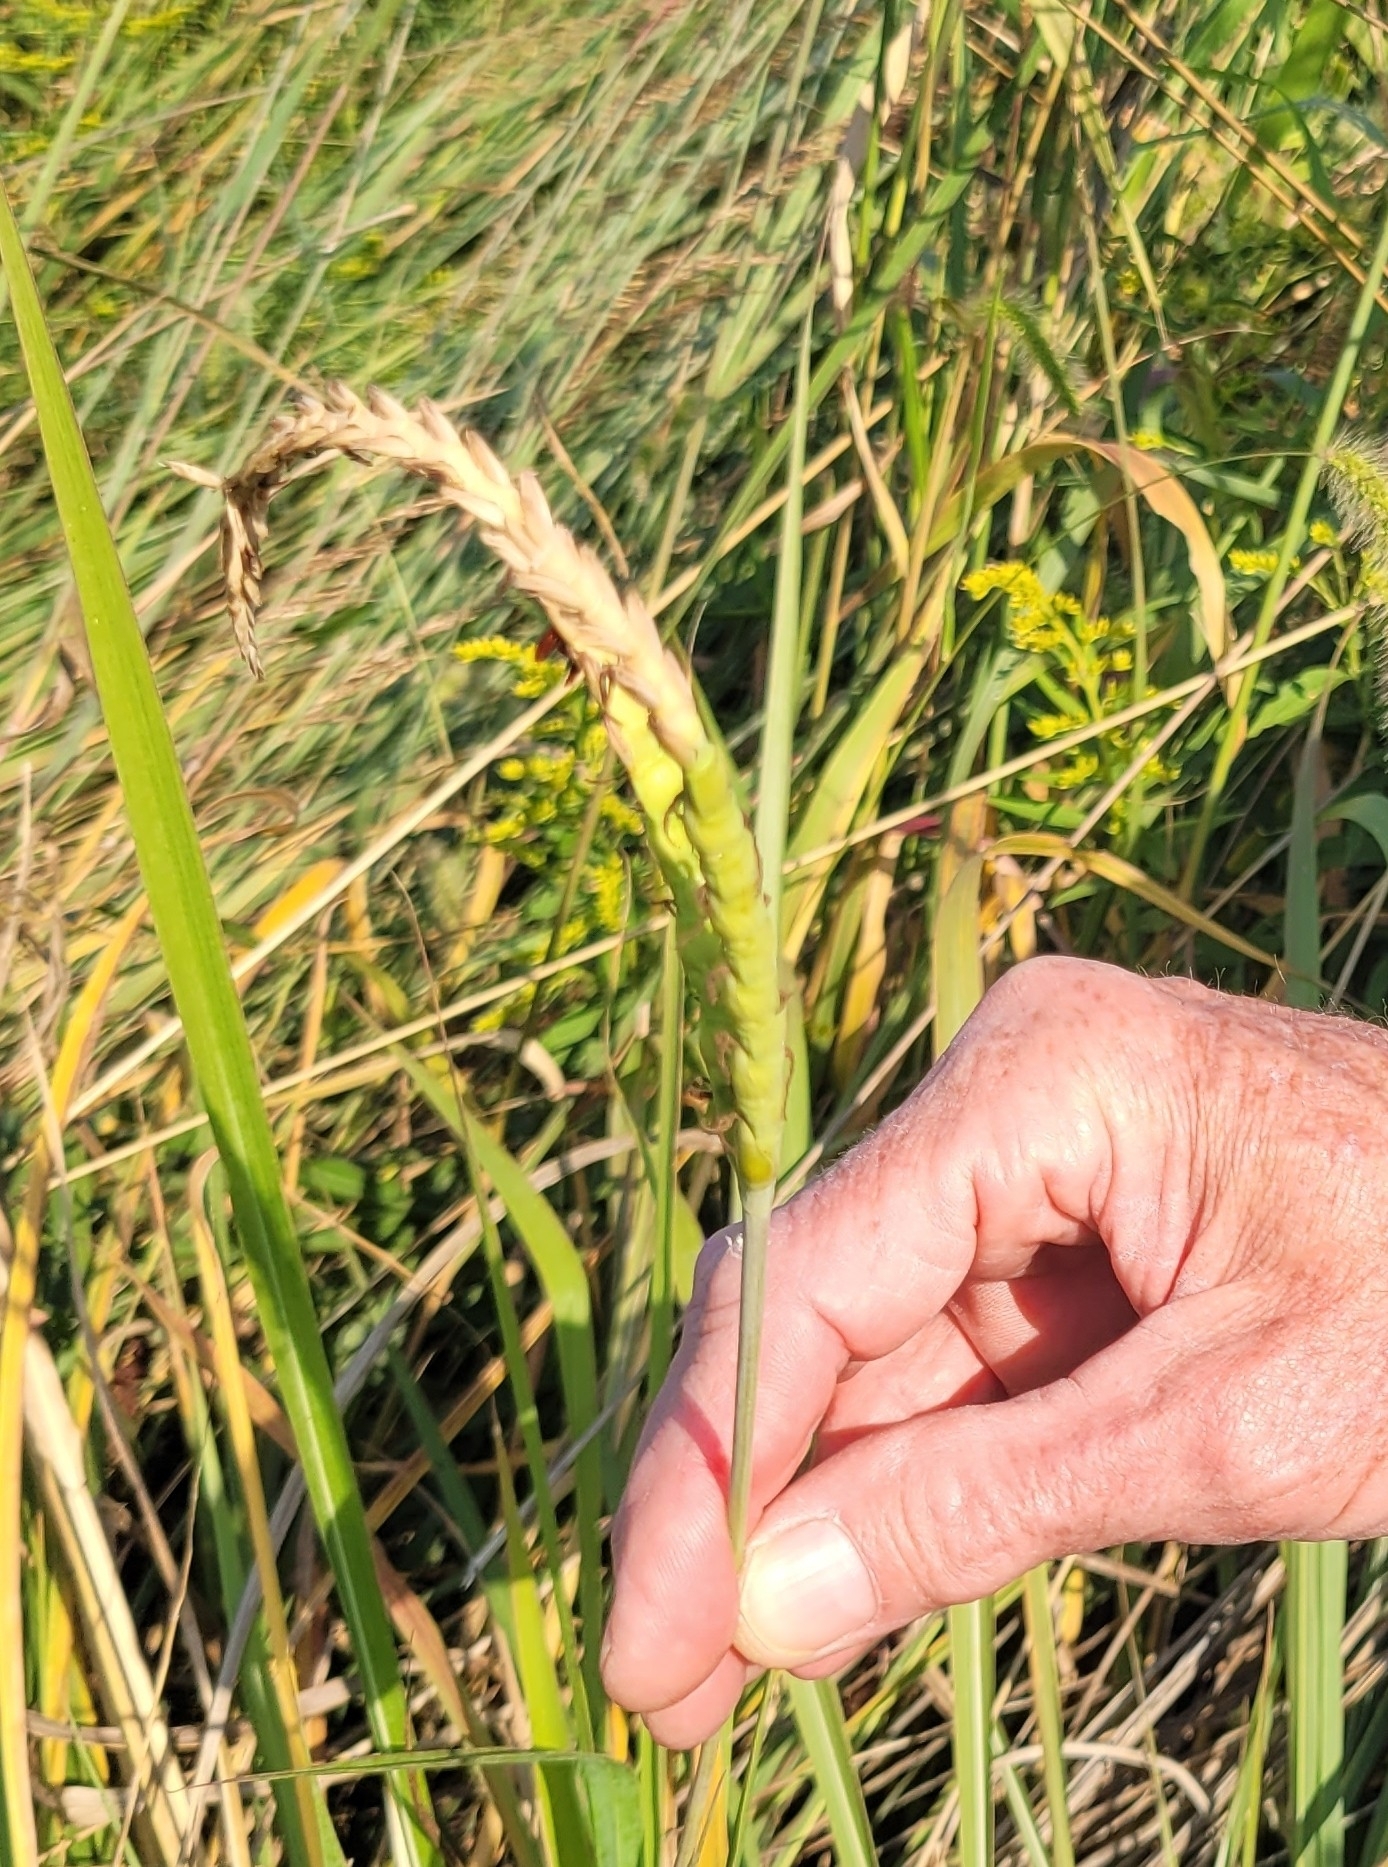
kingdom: Plantae
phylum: Tracheophyta
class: Liliopsida
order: Poales
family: Poaceae
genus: Tripsacum
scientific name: Tripsacum dactyloides
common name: Buffalo-grass
